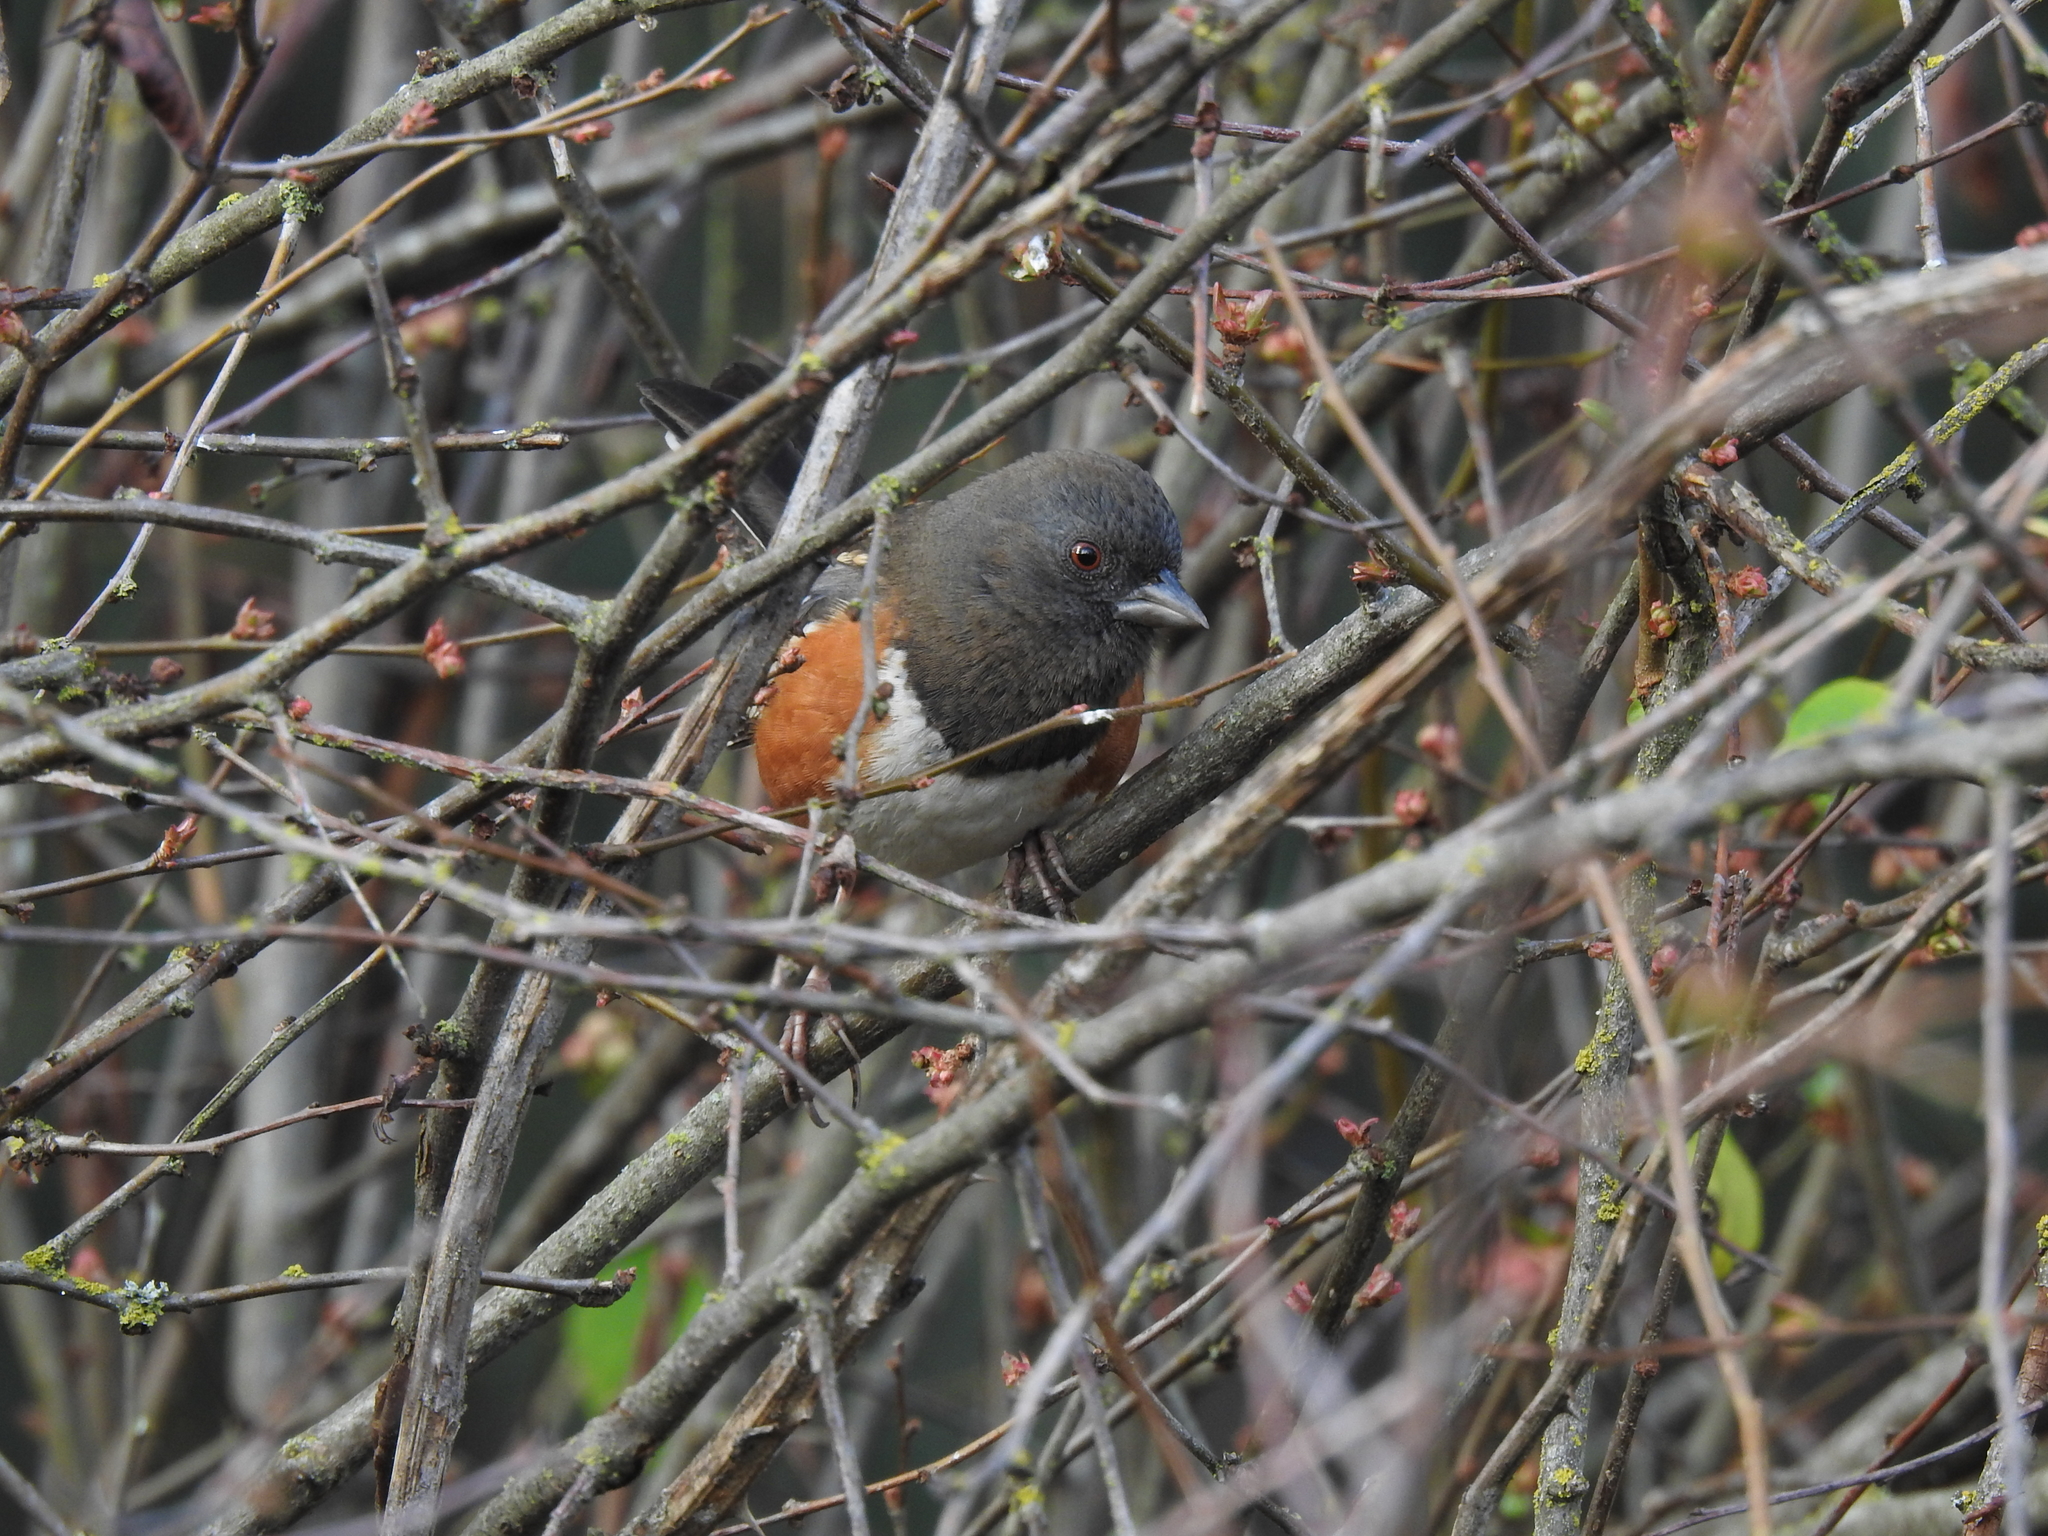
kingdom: Animalia
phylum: Chordata
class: Aves
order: Passeriformes
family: Passerellidae
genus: Pipilo
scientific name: Pipilo maculatus
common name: Spotted towhee
